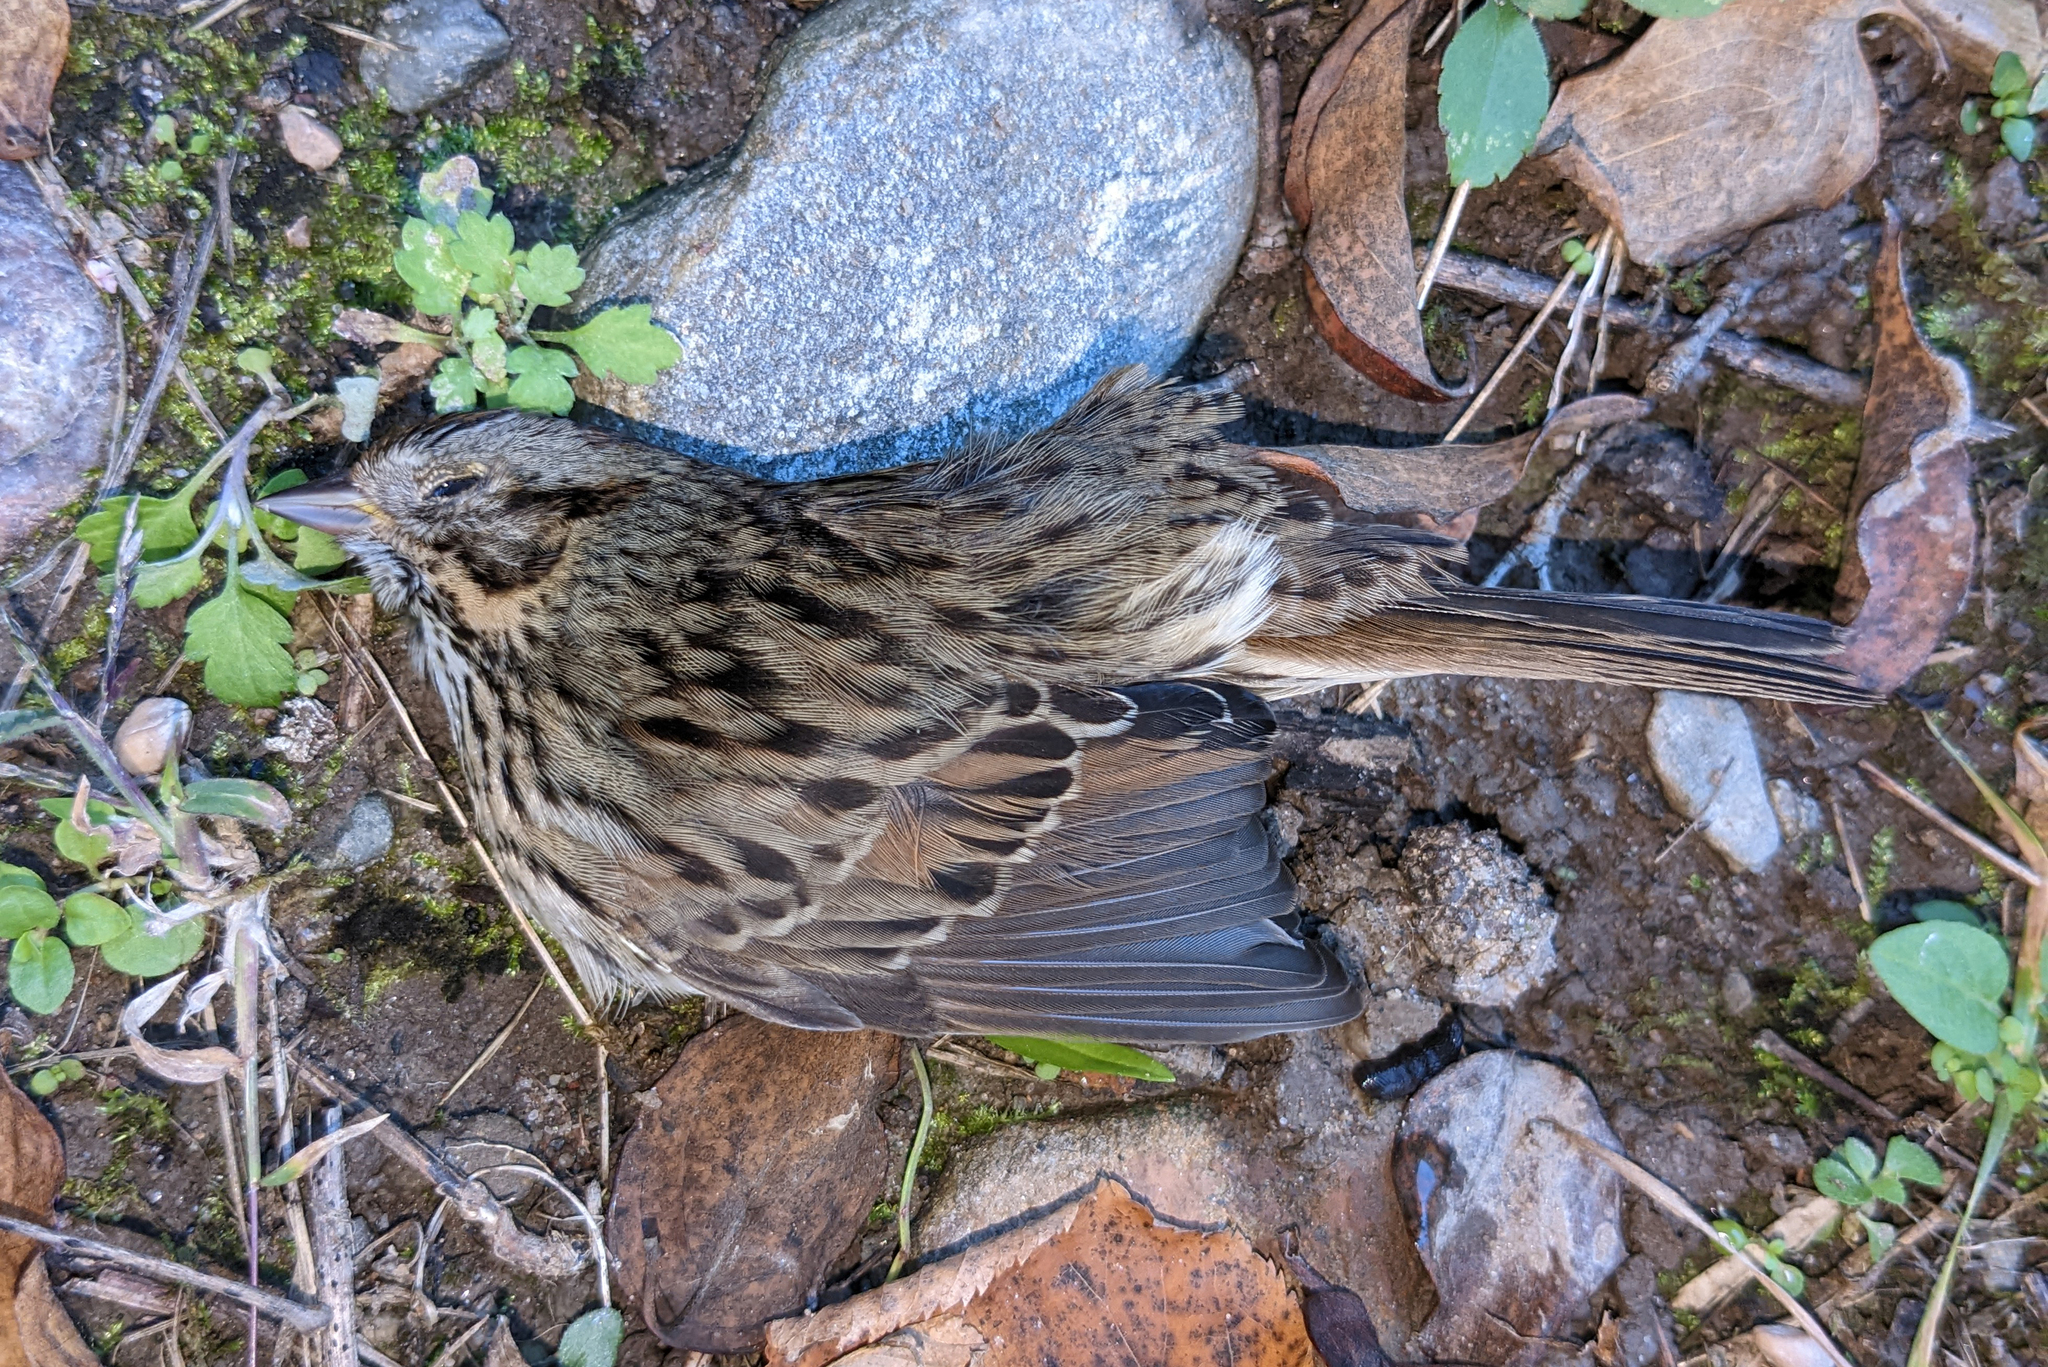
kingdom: Animalia
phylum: Chordata
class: Aves
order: Passeriformes
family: Passerellidae
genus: Melospiza
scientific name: Melospiza lincolnii
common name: Lincoln's sparrow
